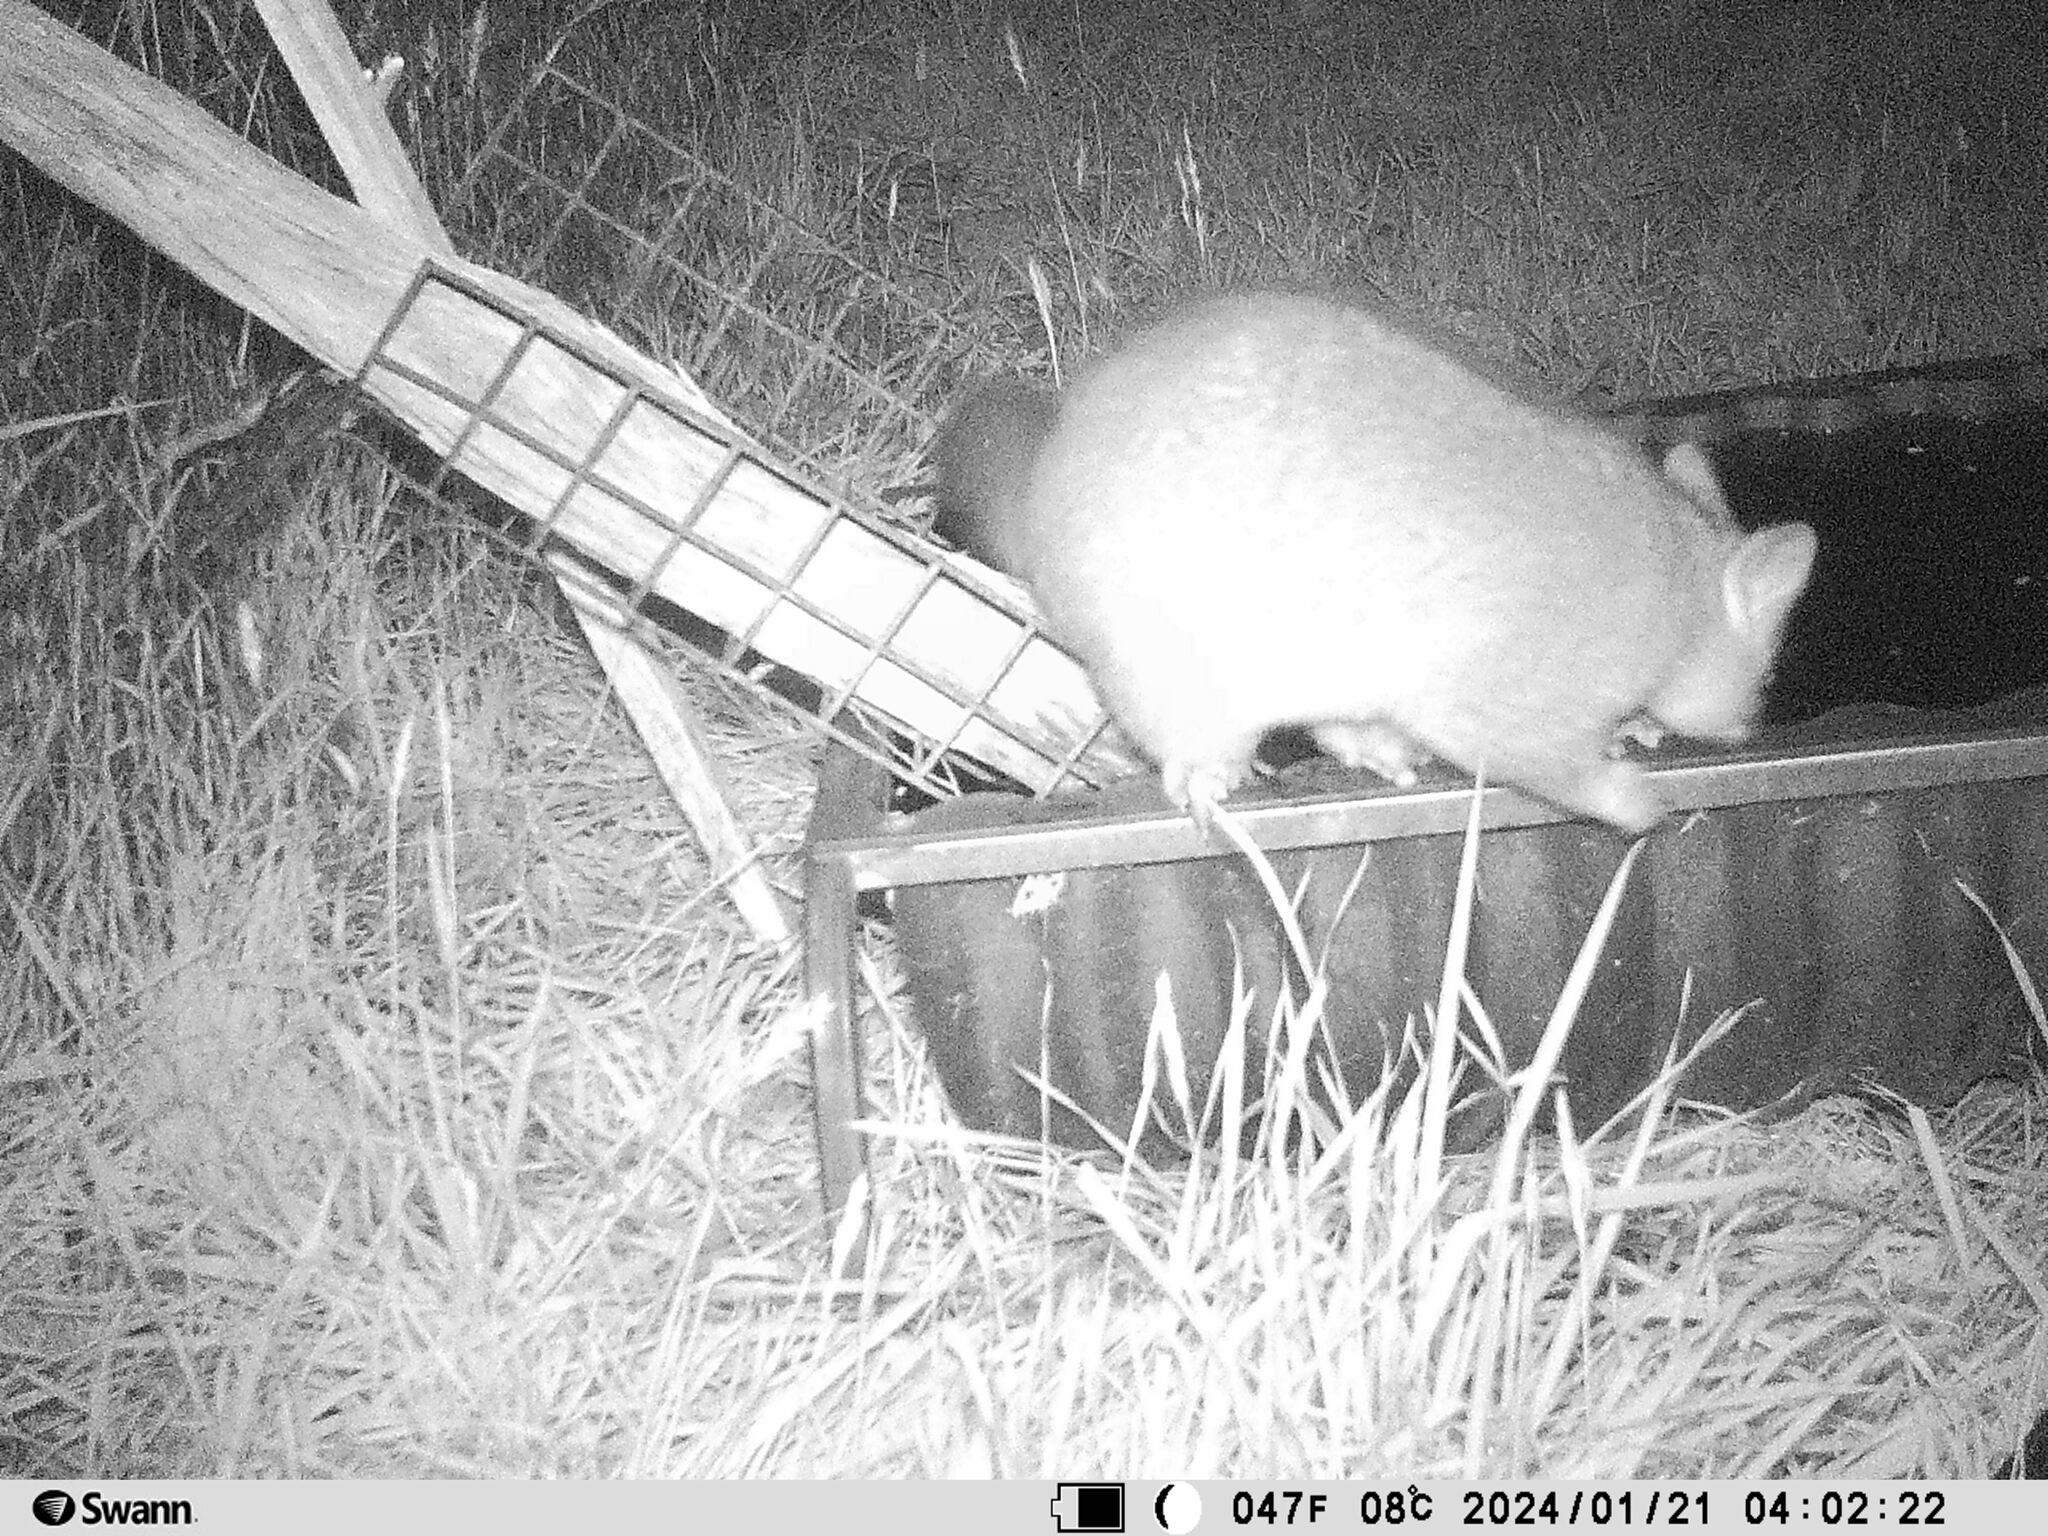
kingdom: Animalia
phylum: Chordata
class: Mammalia
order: Diprotodontia
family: Phalangeridae
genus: Trichosurus
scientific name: Trichosurus vulpecula
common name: Common brushtail
